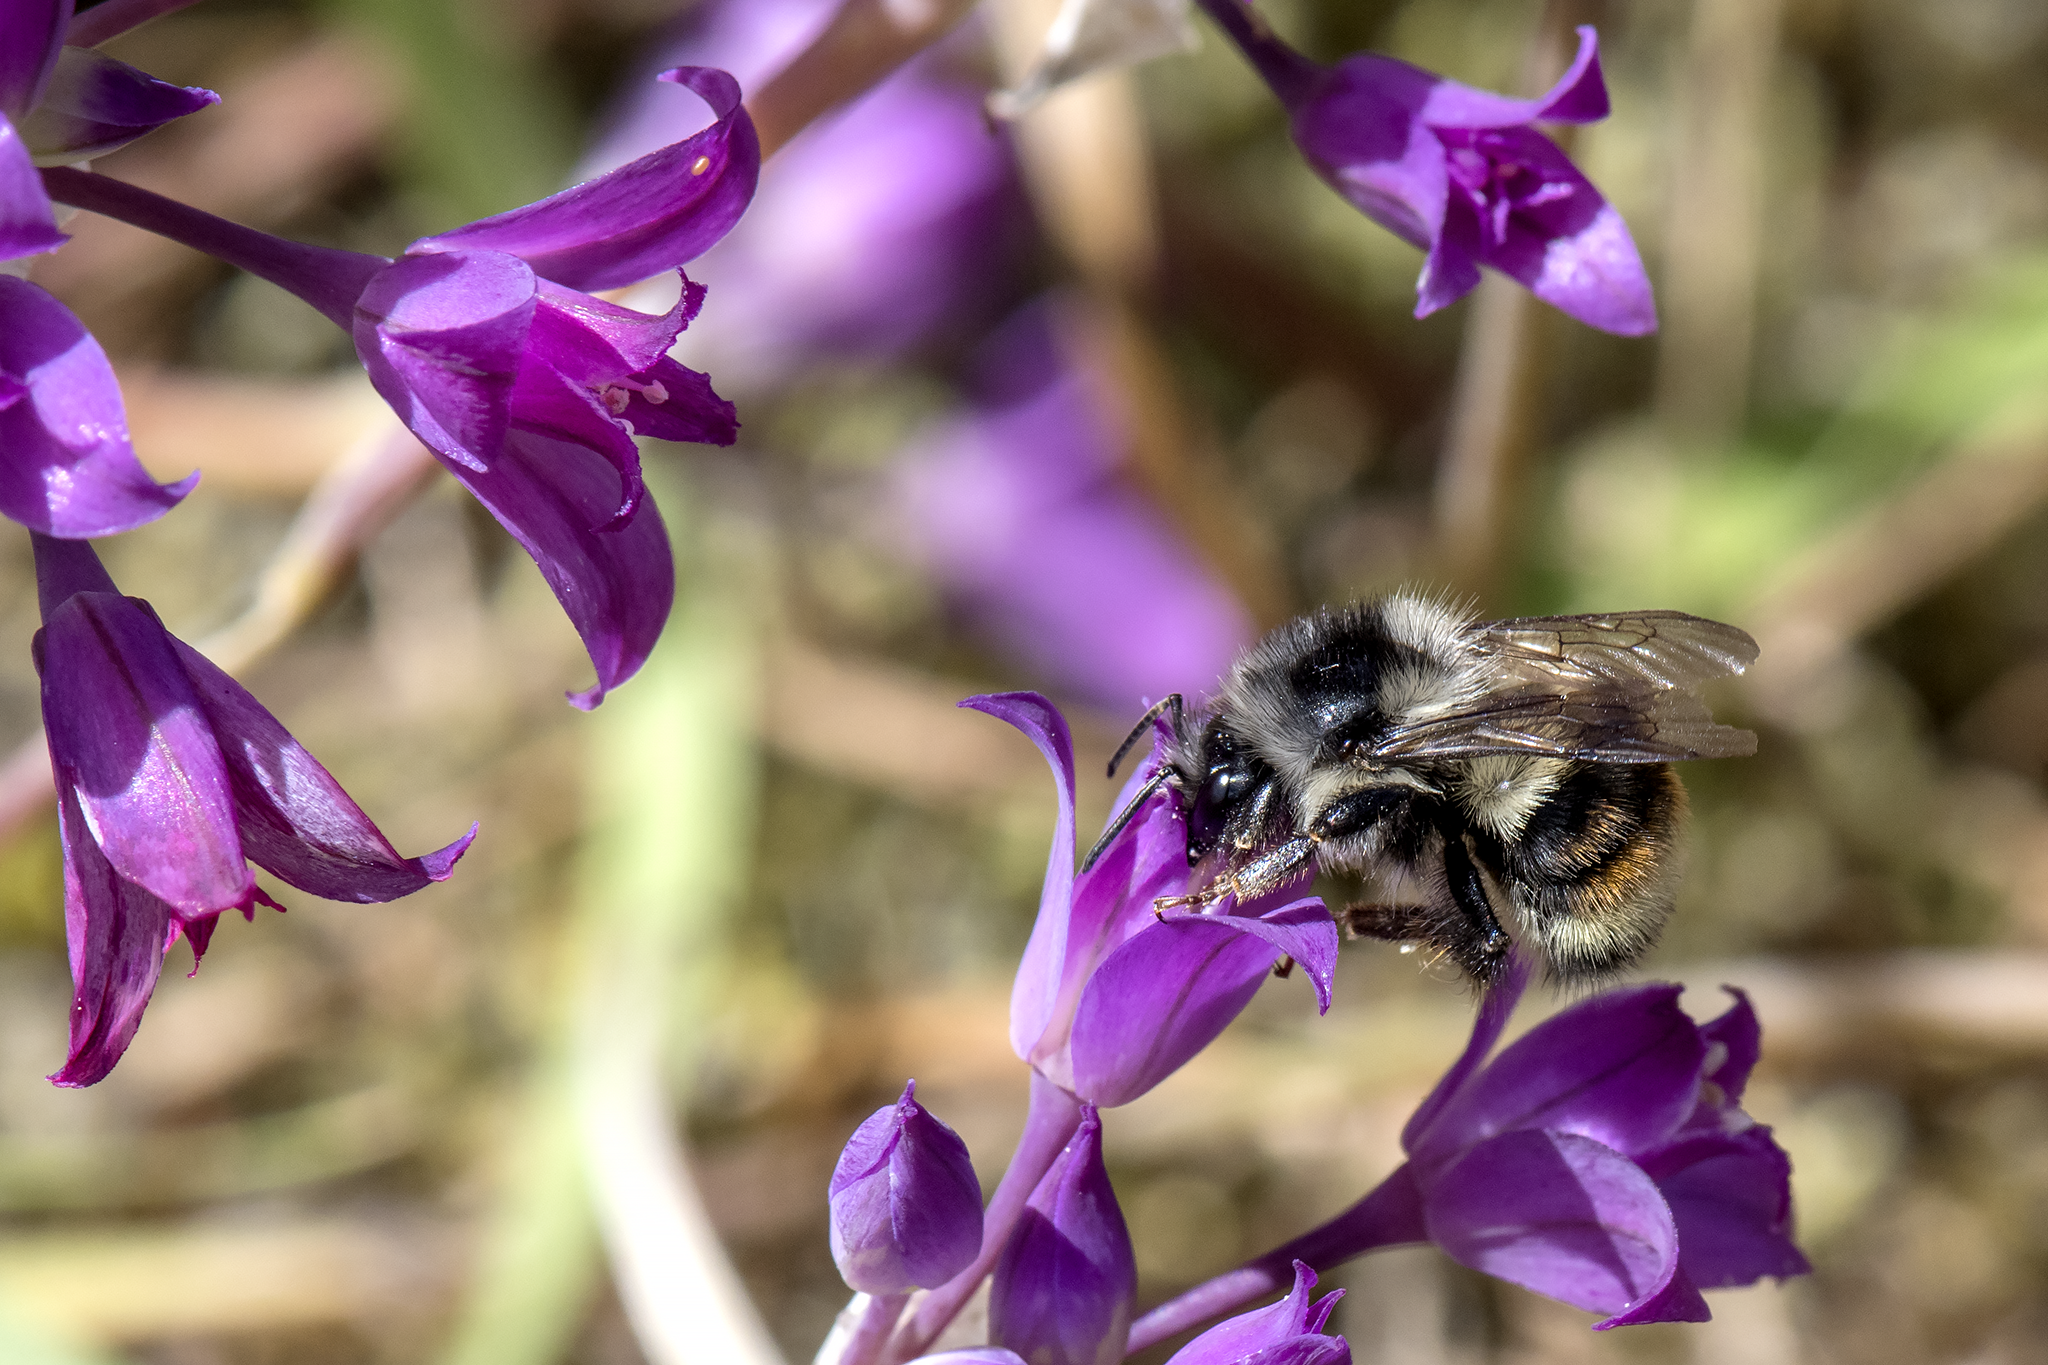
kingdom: Animalia
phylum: Arthropoda
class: Insecta
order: Hymenoptera
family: Apidae
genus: Bombus
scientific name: Bombus vancouverensis
